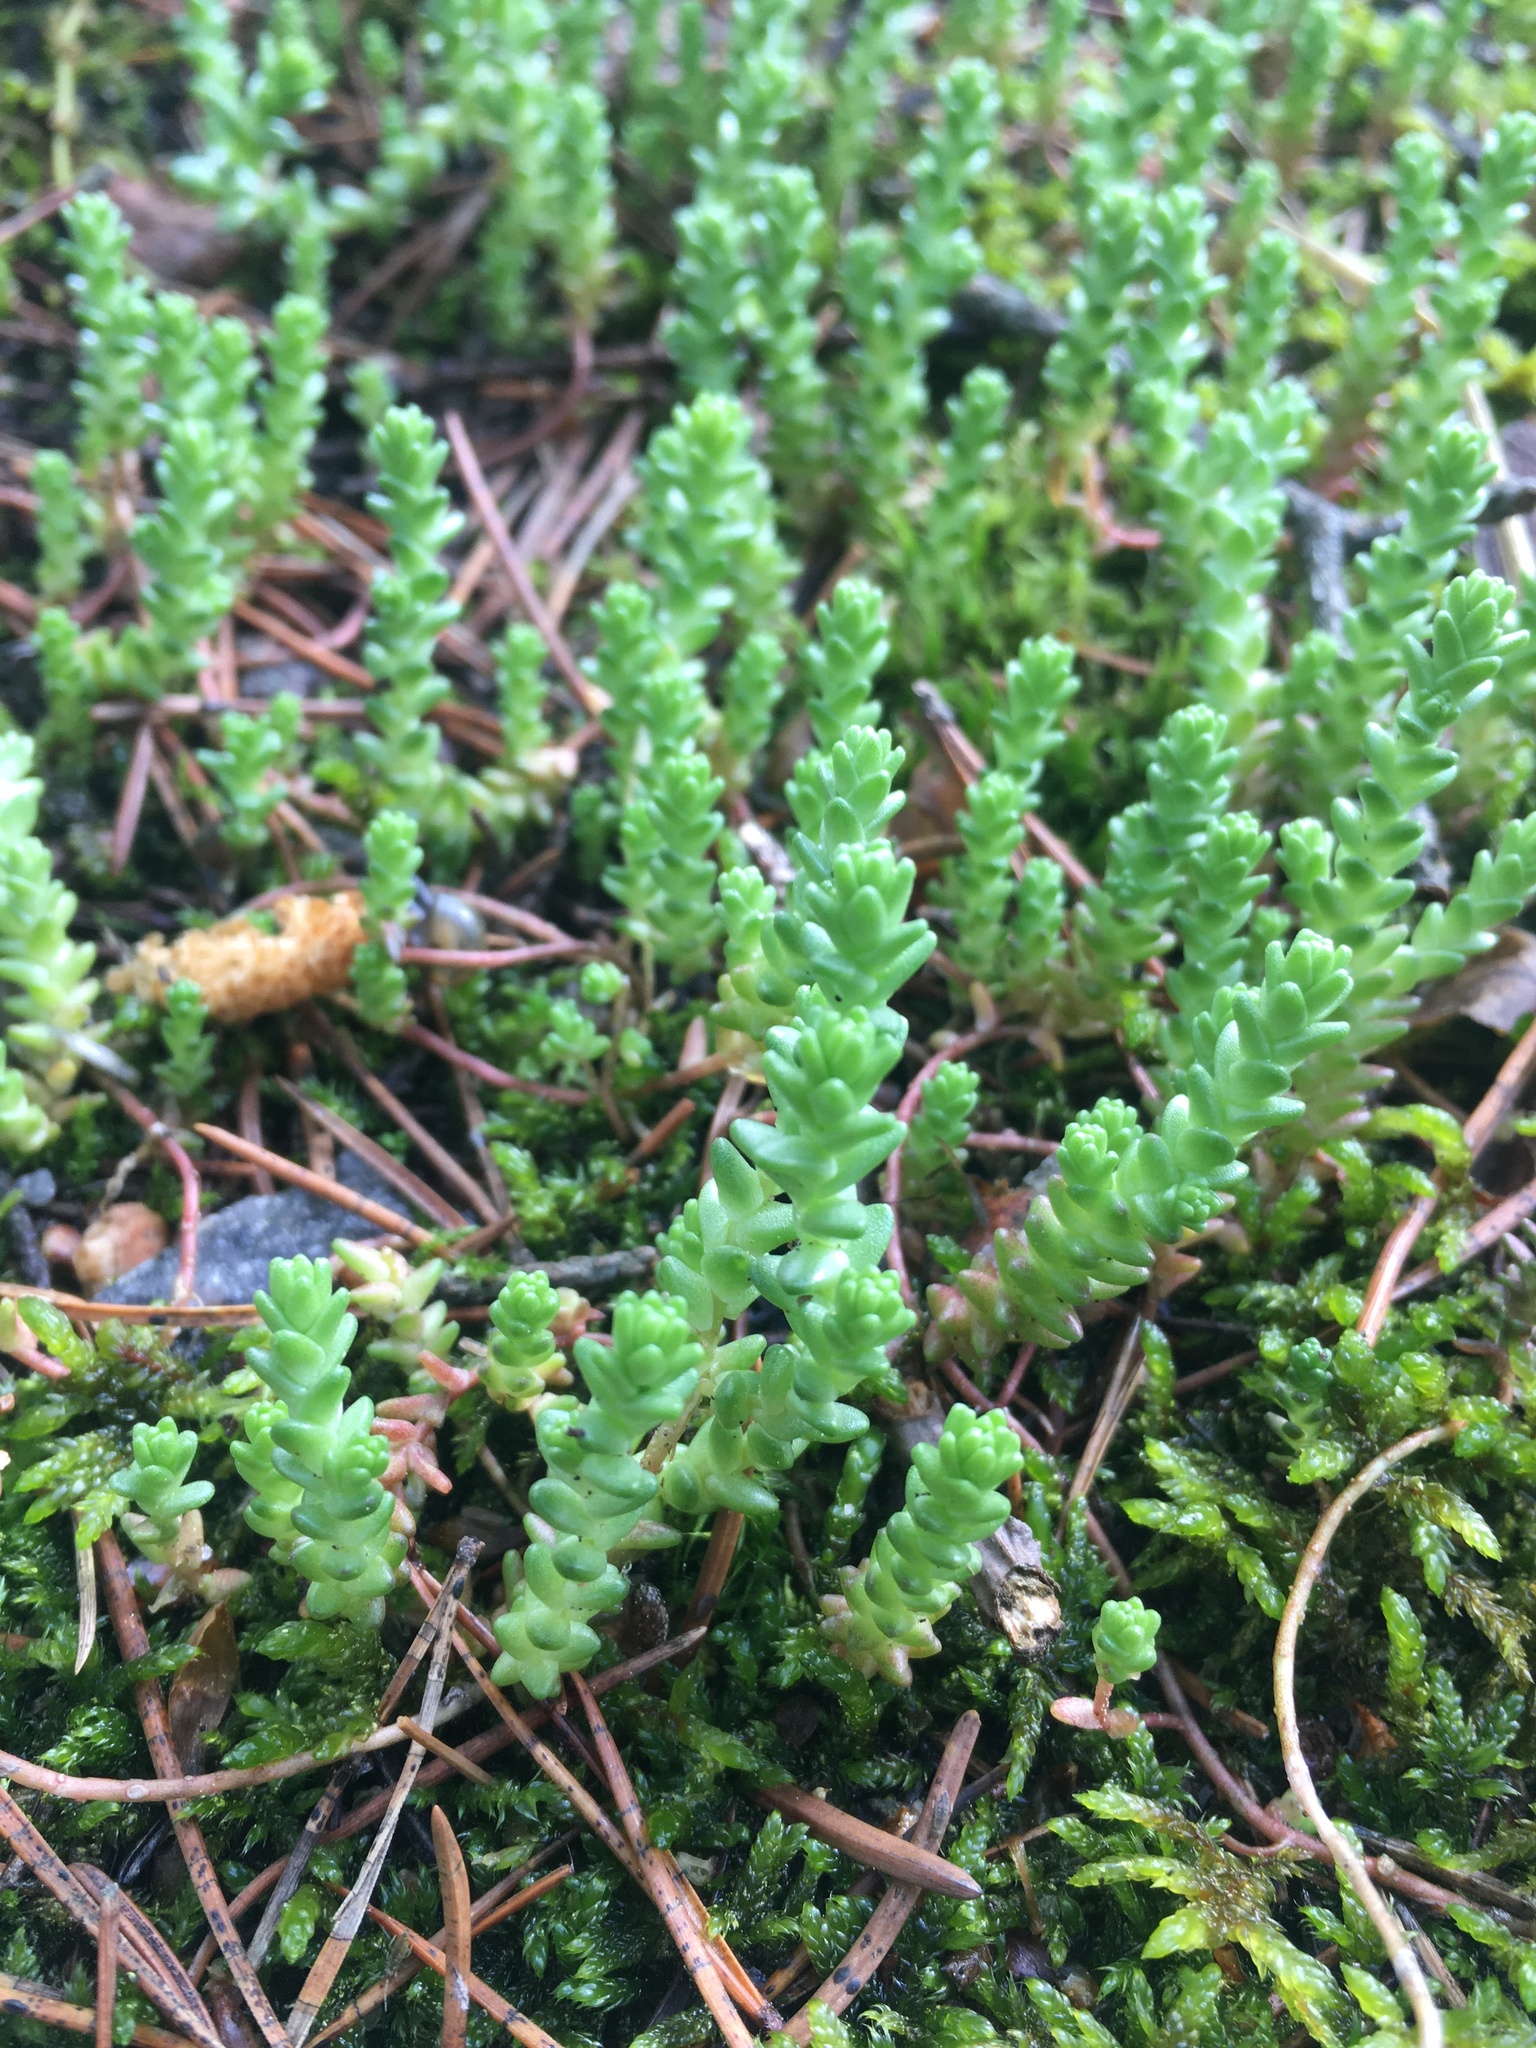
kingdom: Plantae
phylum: Tracheophyta
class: Magnoliopsida
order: Saxifragales
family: Crassulaceae
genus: Sedum
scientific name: Sedum acre
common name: Biting stonecrop
